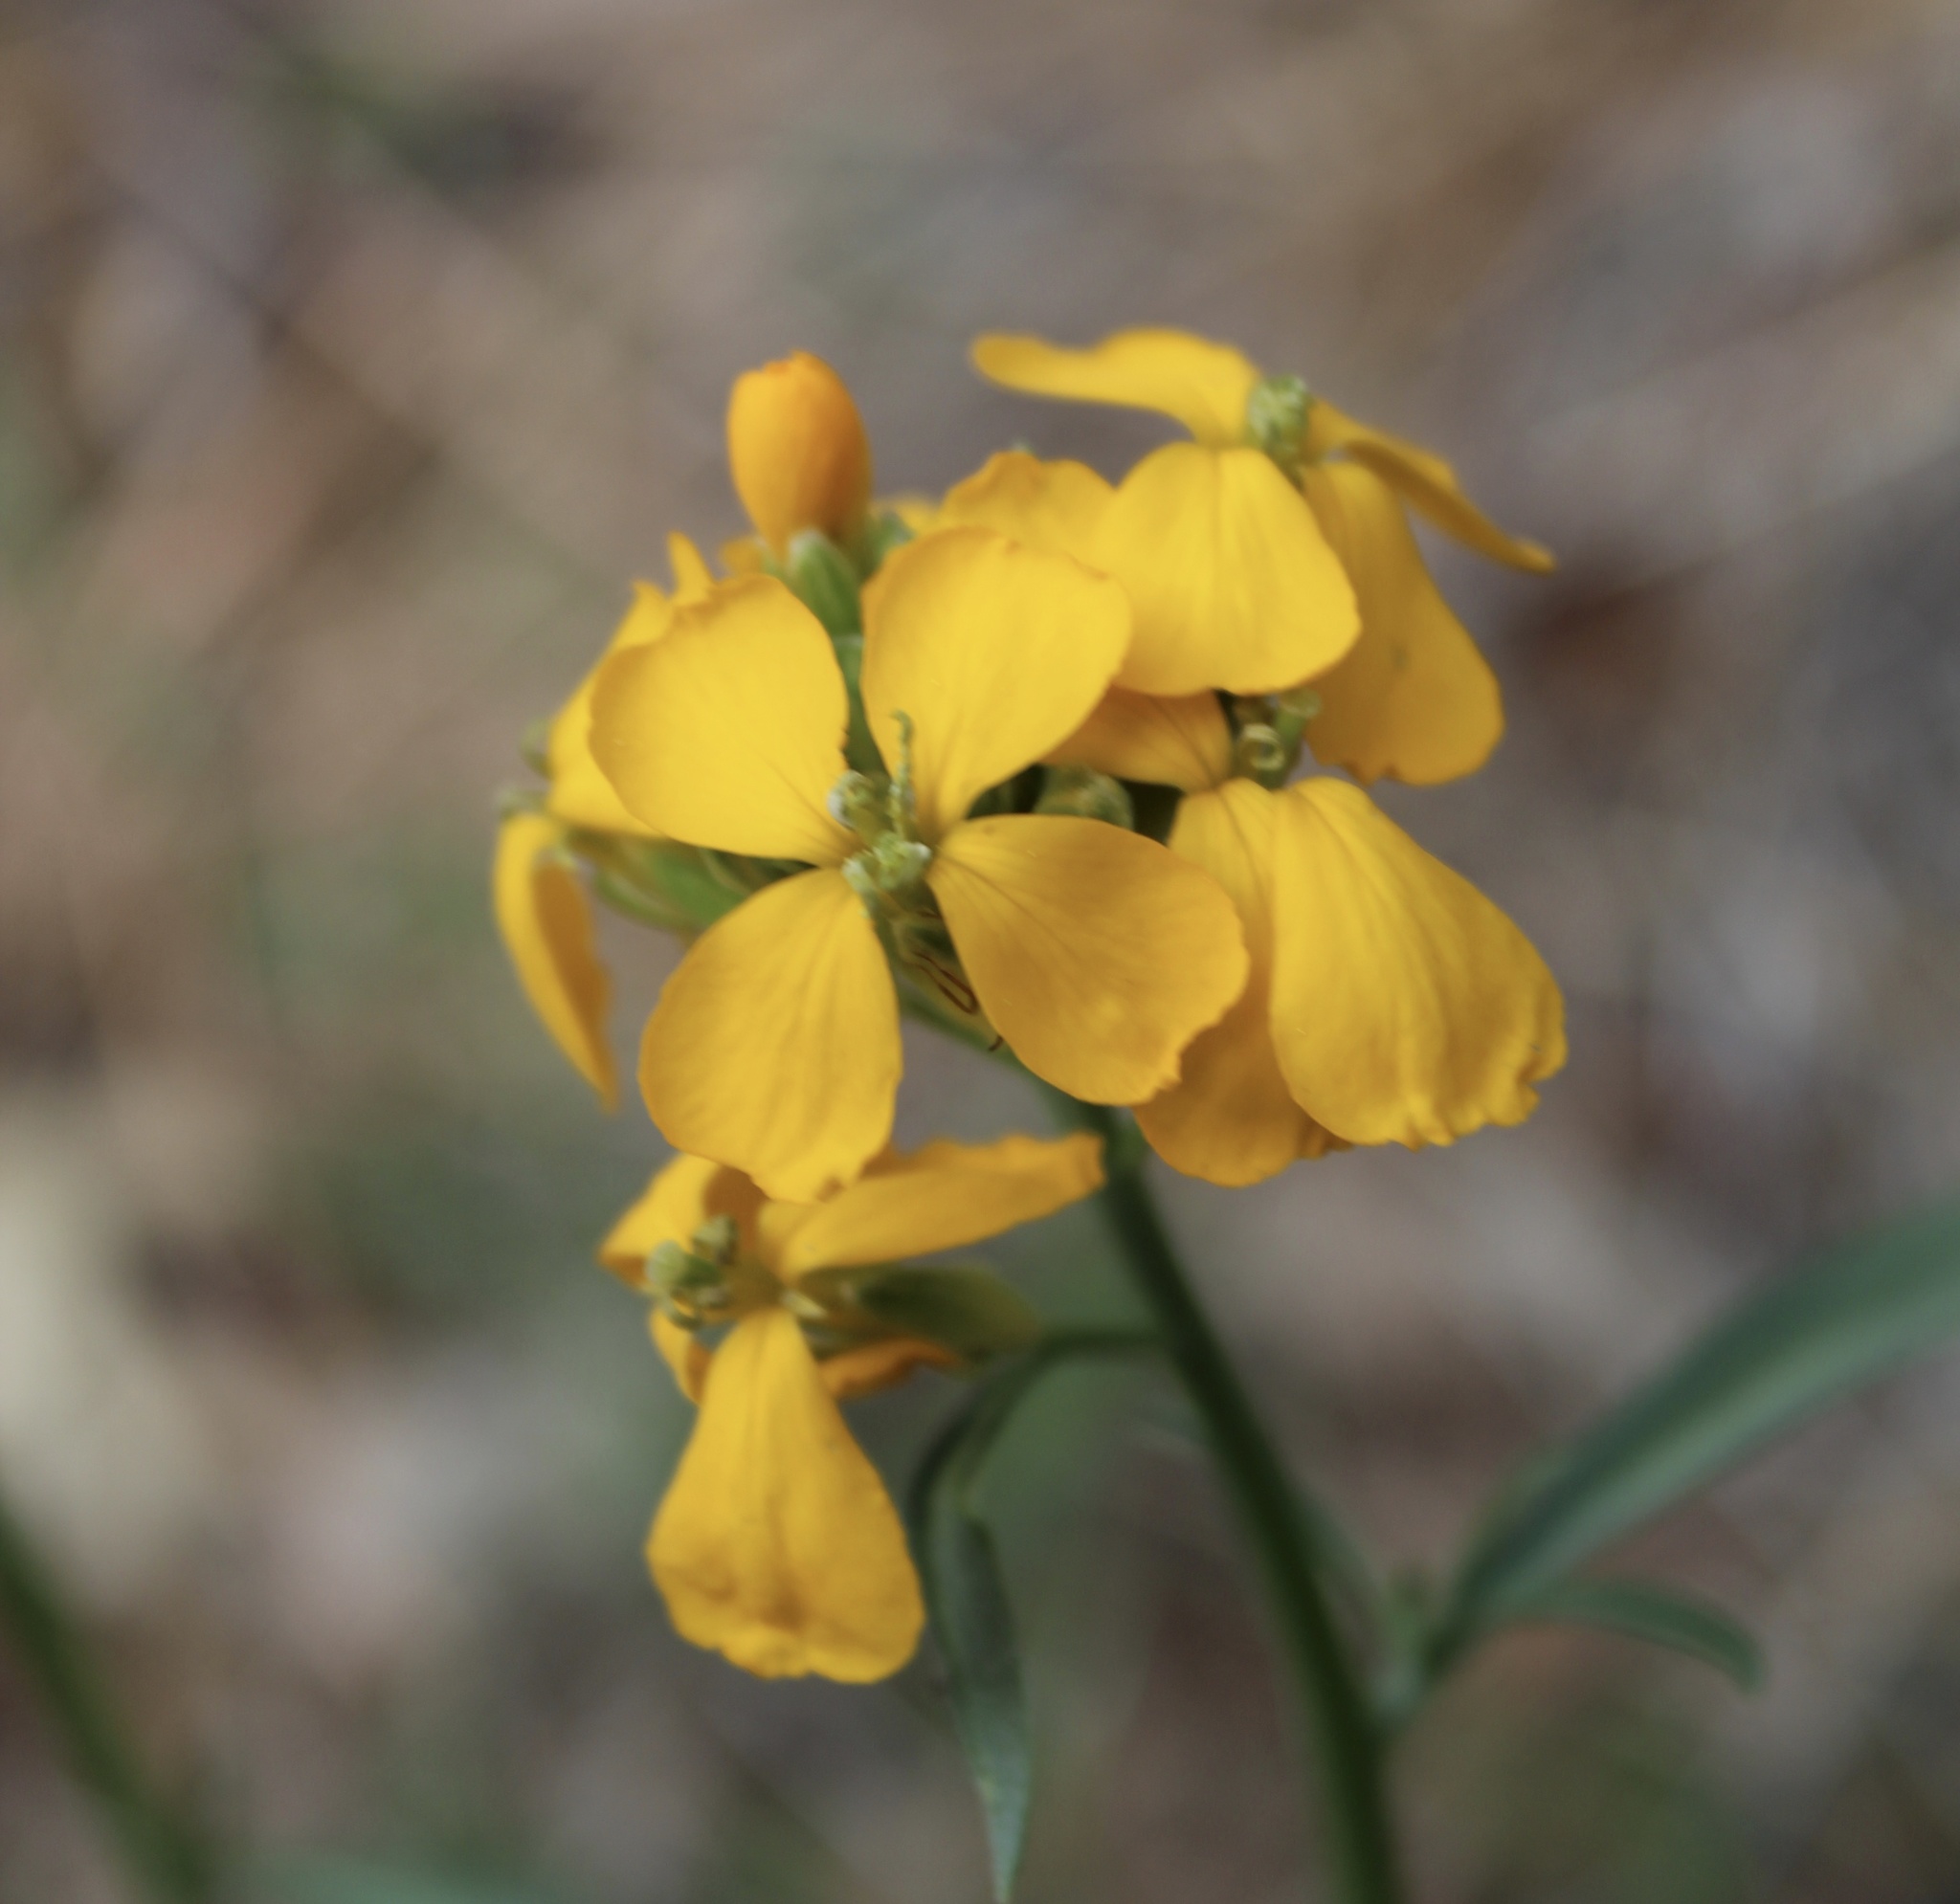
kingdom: Plantae
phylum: Tracheophyta
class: Magnoliopsida
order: Brassicales
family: Brassicaceae
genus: Erysimum
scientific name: Erysimum capitatum
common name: Western wallflower
